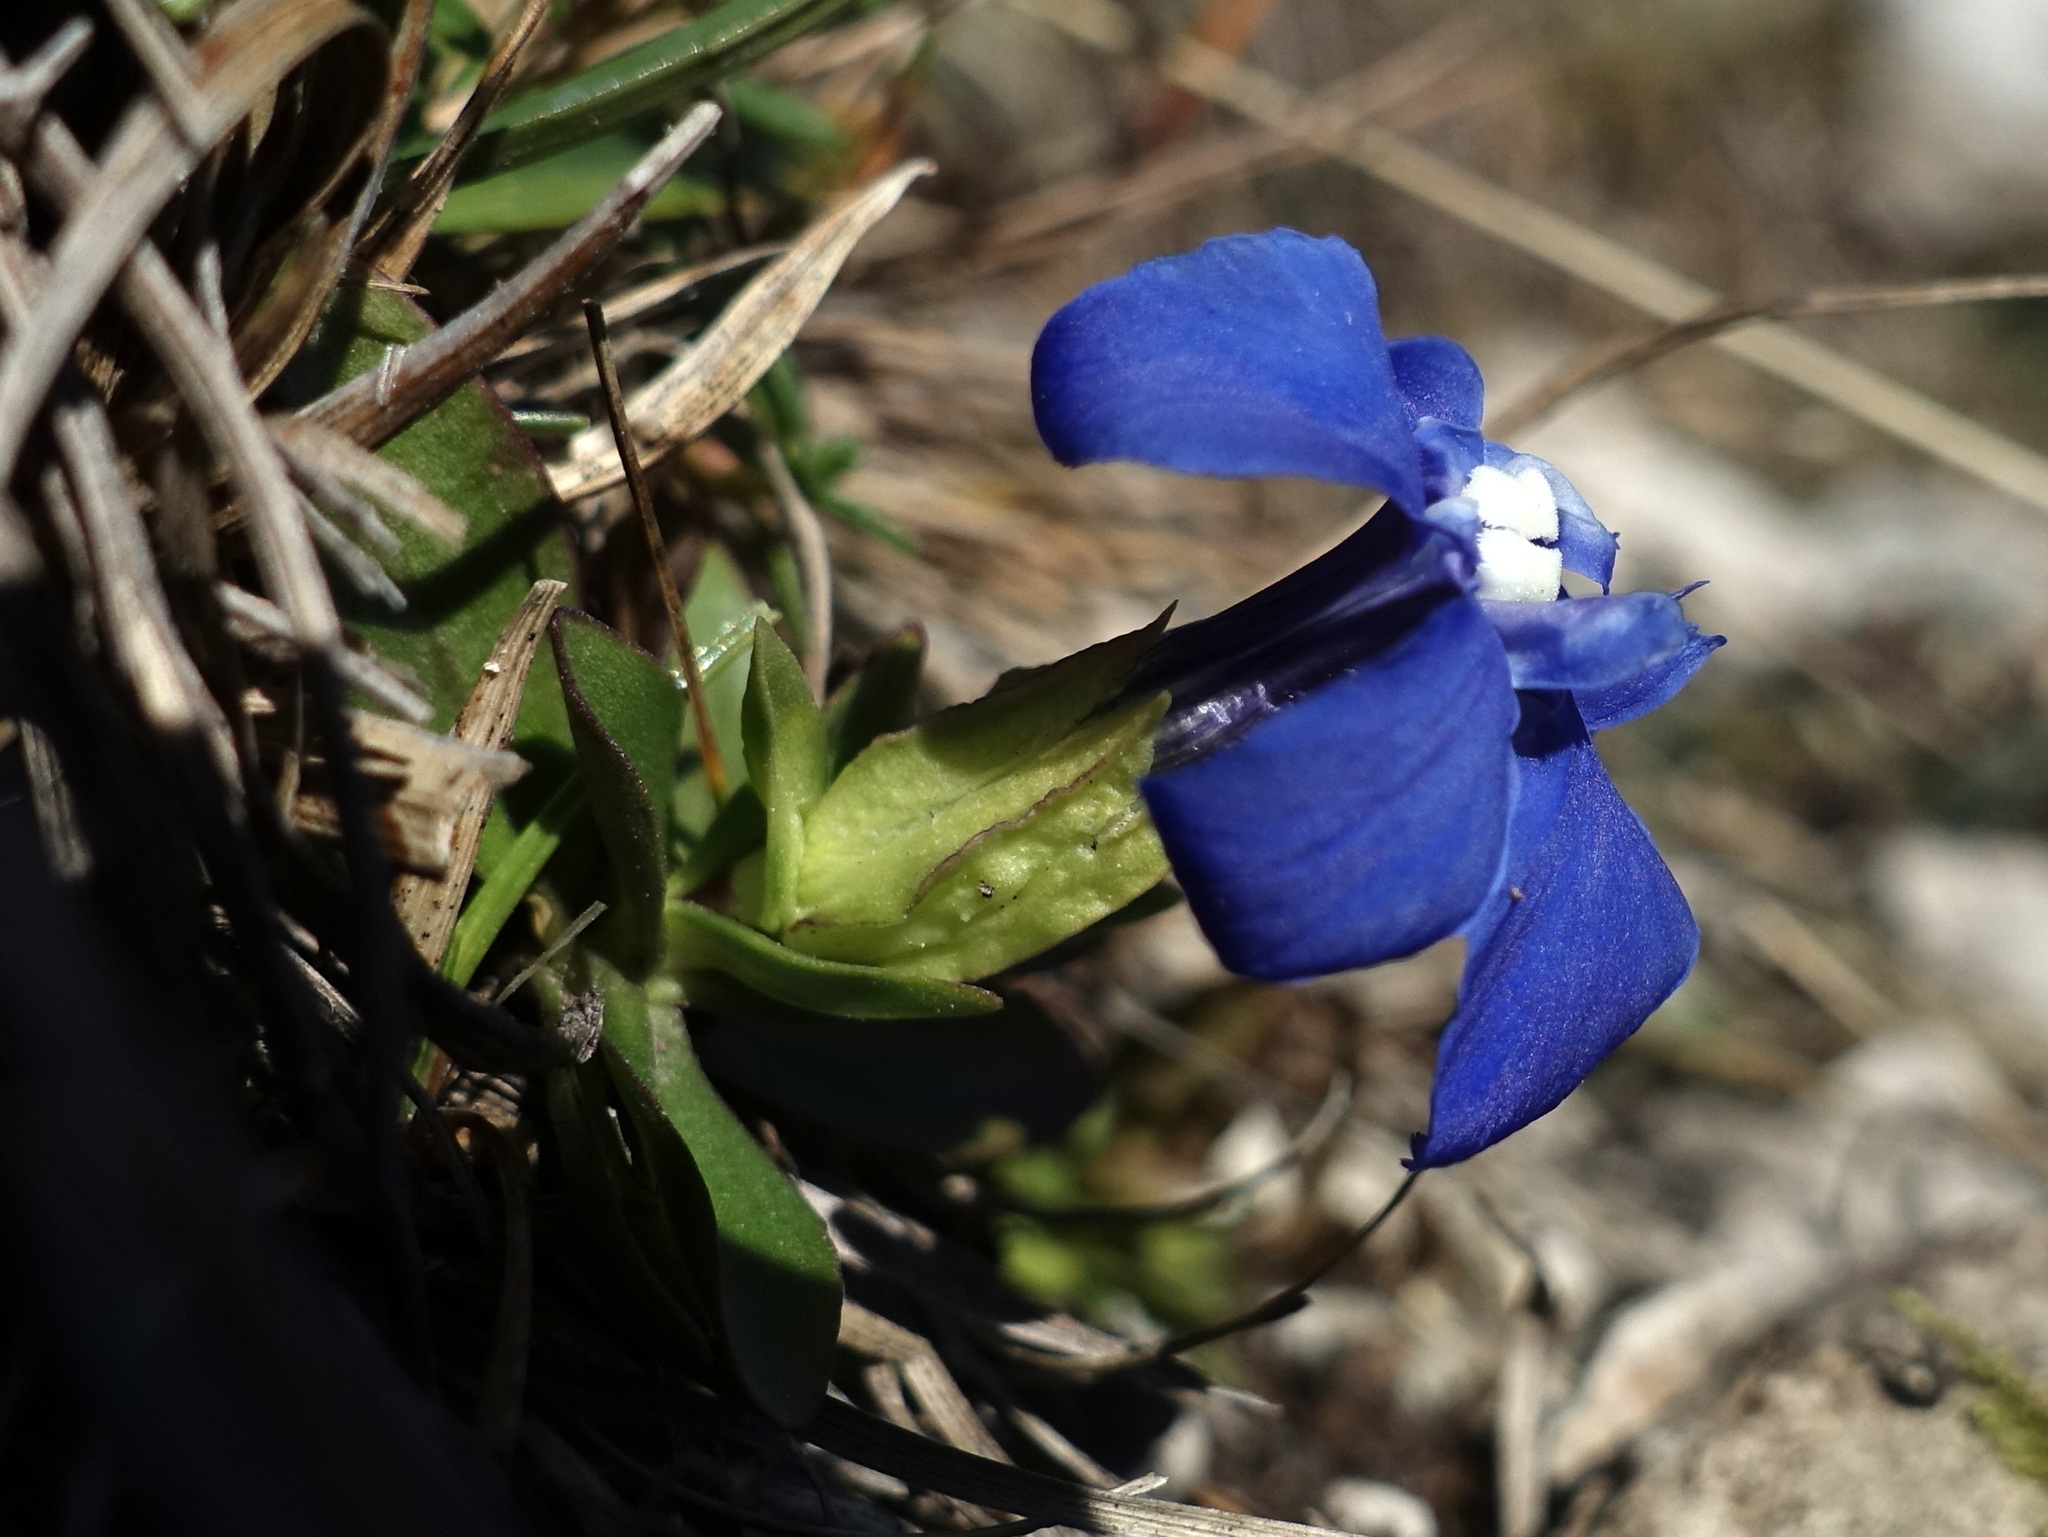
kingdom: Plantae
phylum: Tracheophyta
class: Magnoliopsida
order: Gentianales
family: Gentianaceae
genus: Gentiana
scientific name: Gentiana verna
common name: Spring gentian
